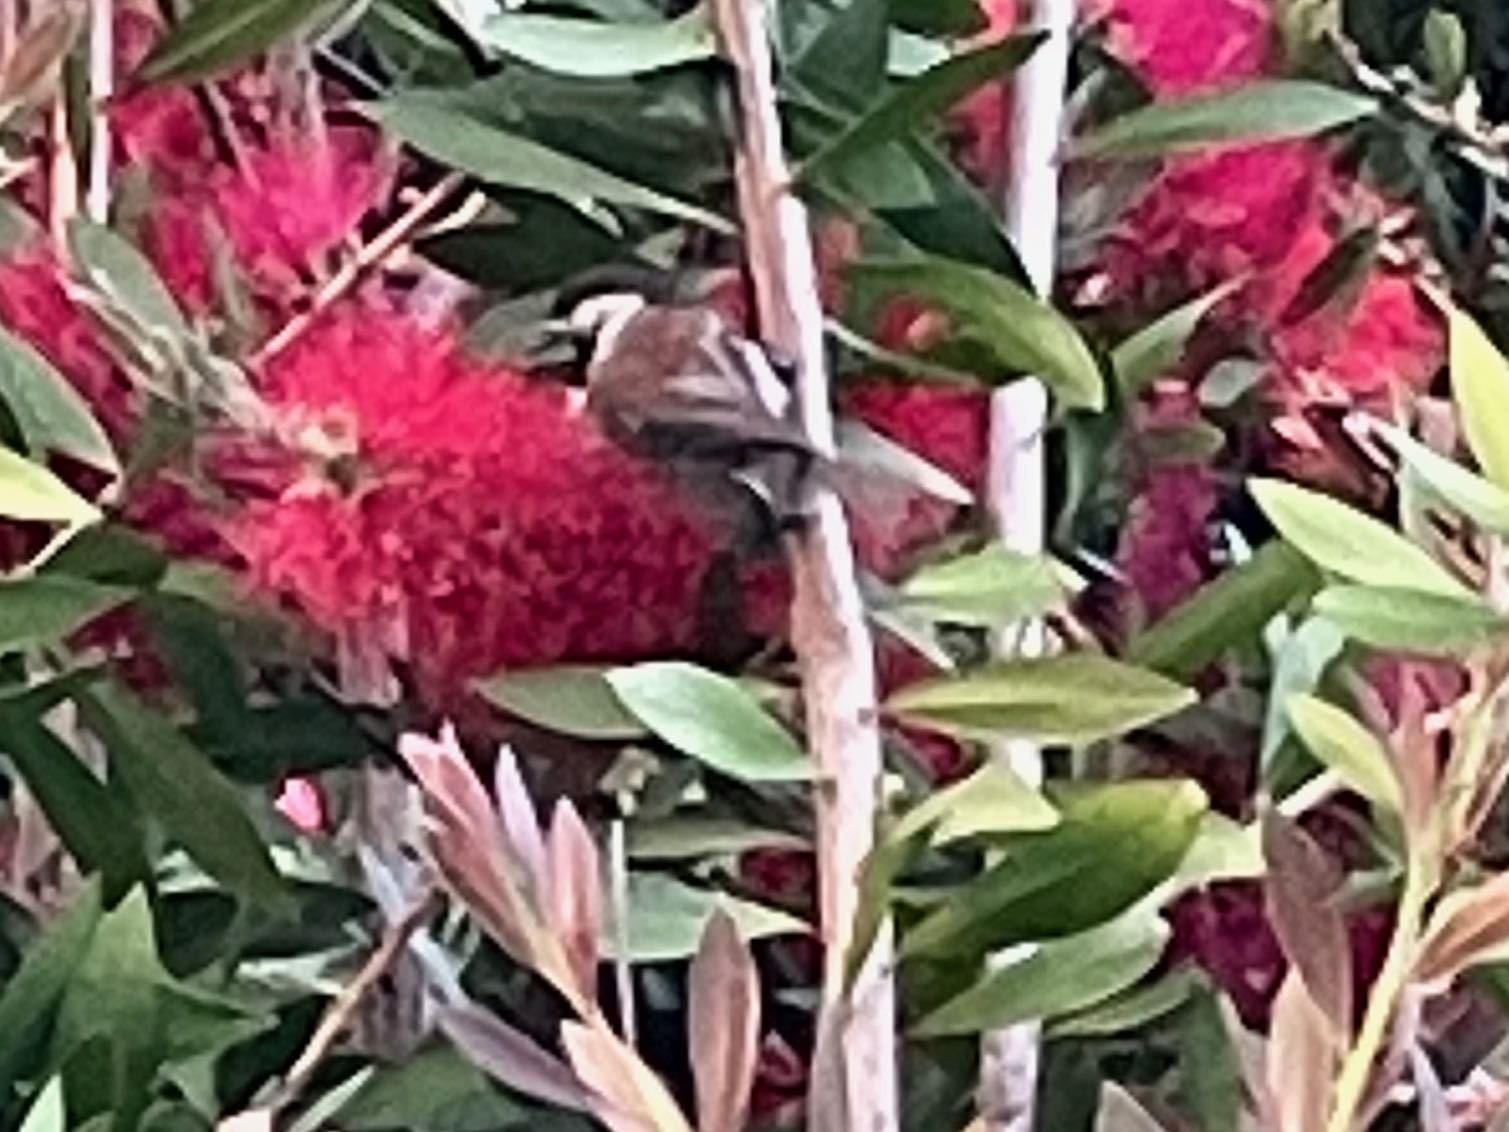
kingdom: Animalia
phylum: Chordata
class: Aves
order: Passeriformes
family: Paridae
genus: Poecile
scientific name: Poecile rufescens
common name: Chestnut-backed chickadee
